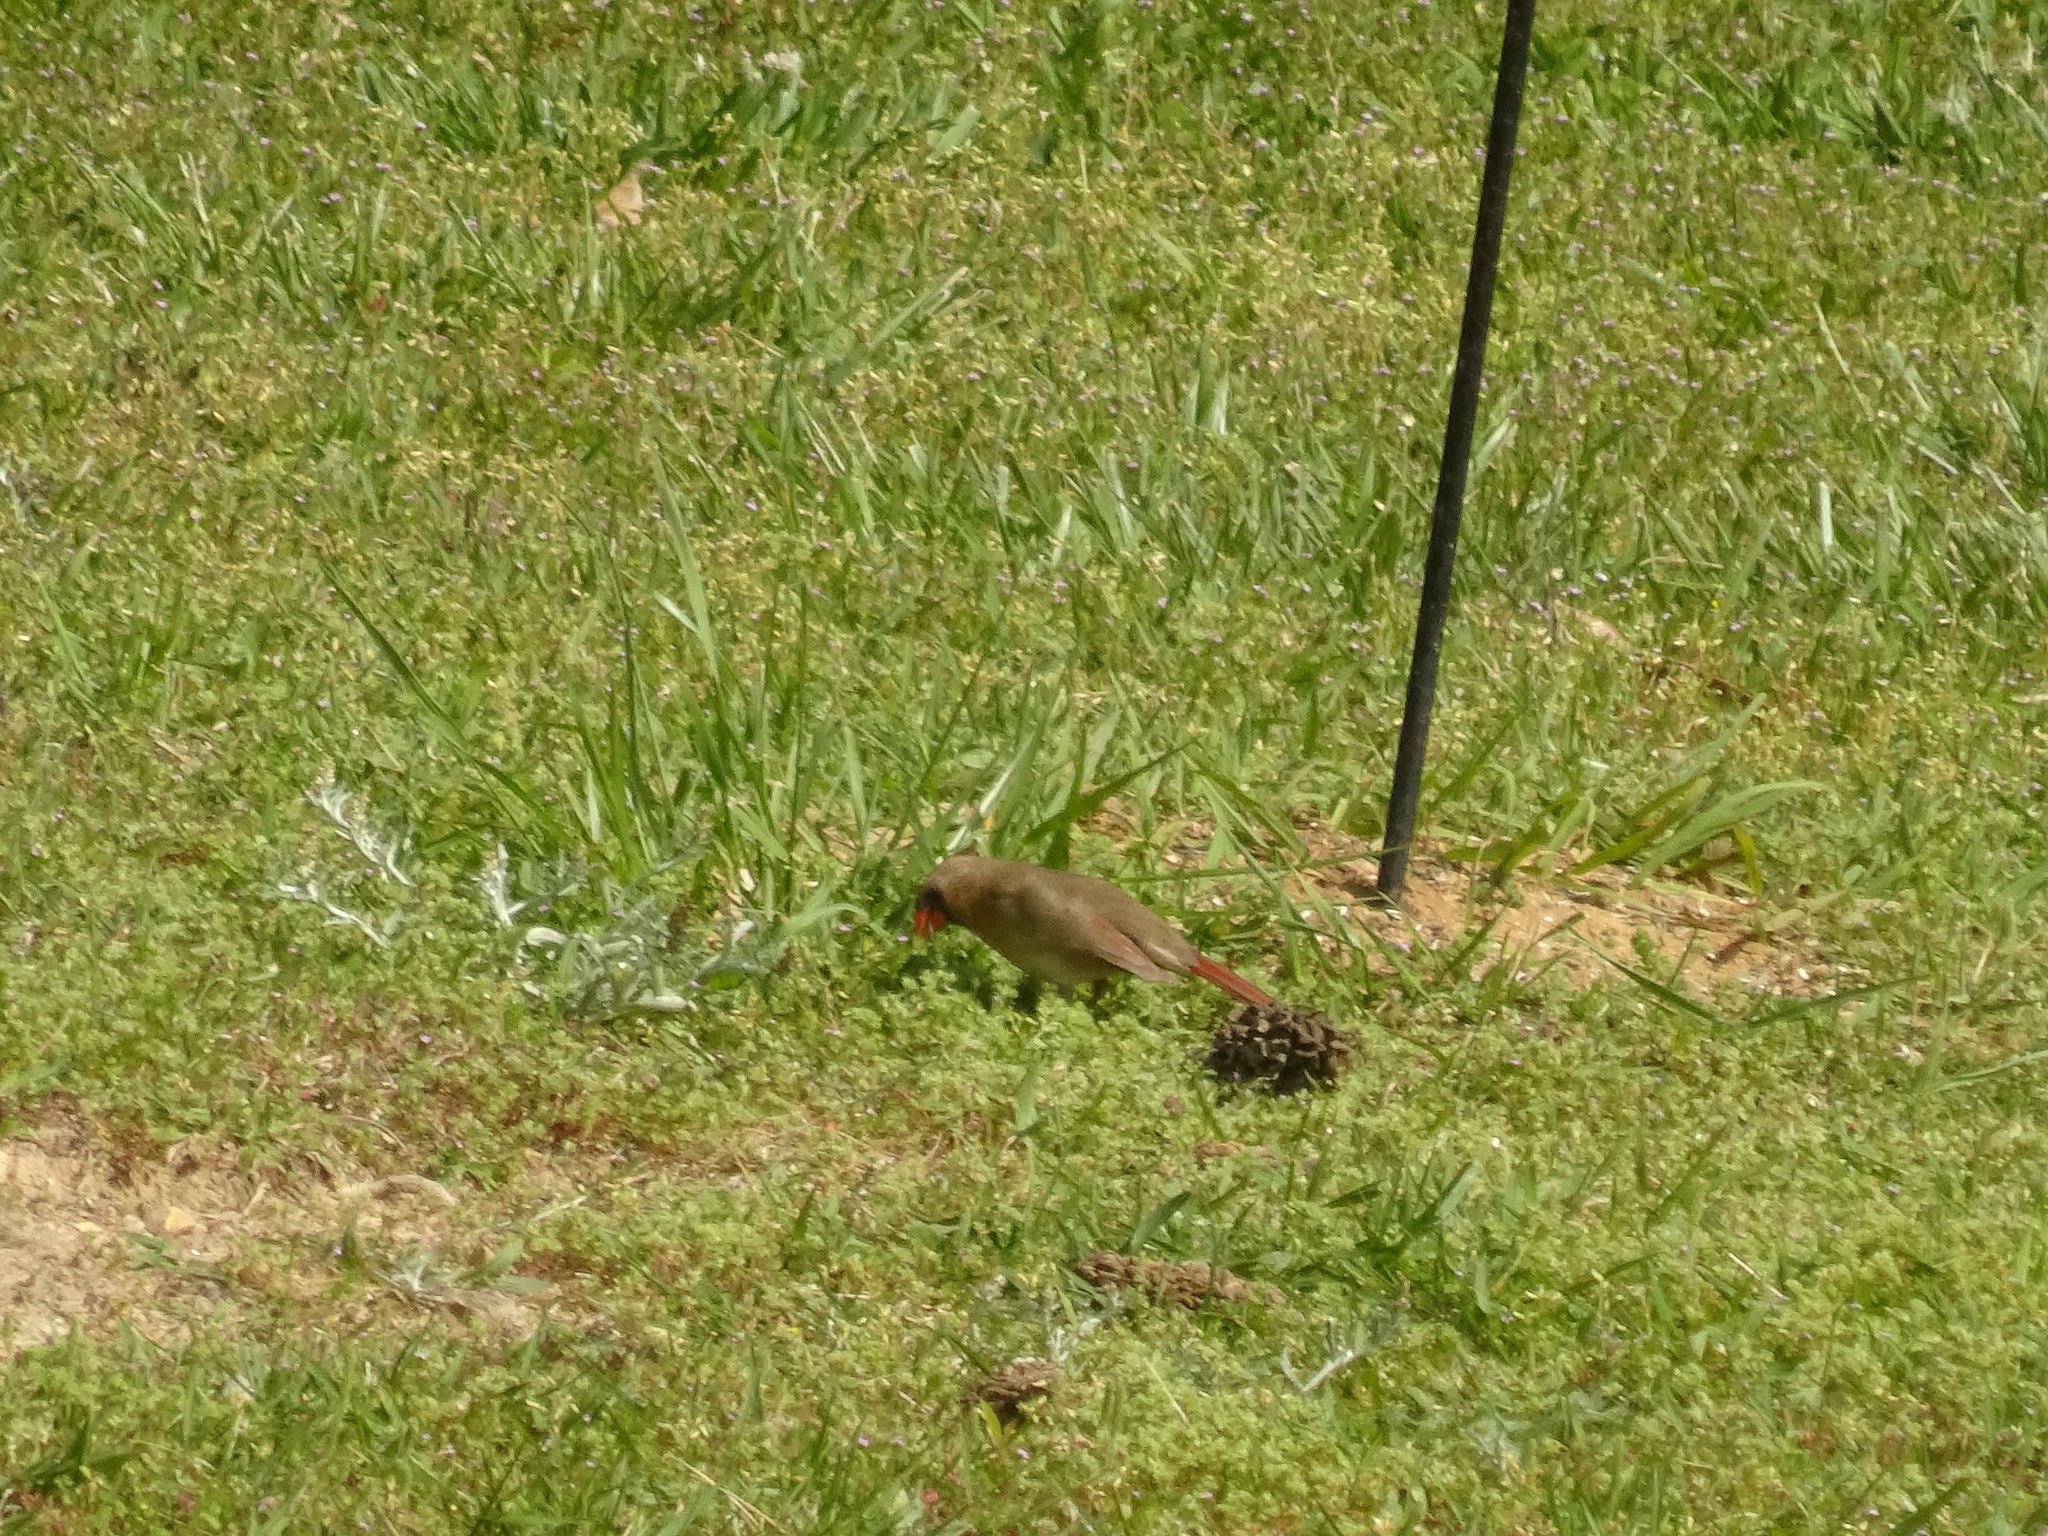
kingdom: Animalia
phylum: Chordata
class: Aves
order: Passeriformes
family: Cardinalidae
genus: Cardinalis
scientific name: Cardinalis cardinalis
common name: Northern cardinal
